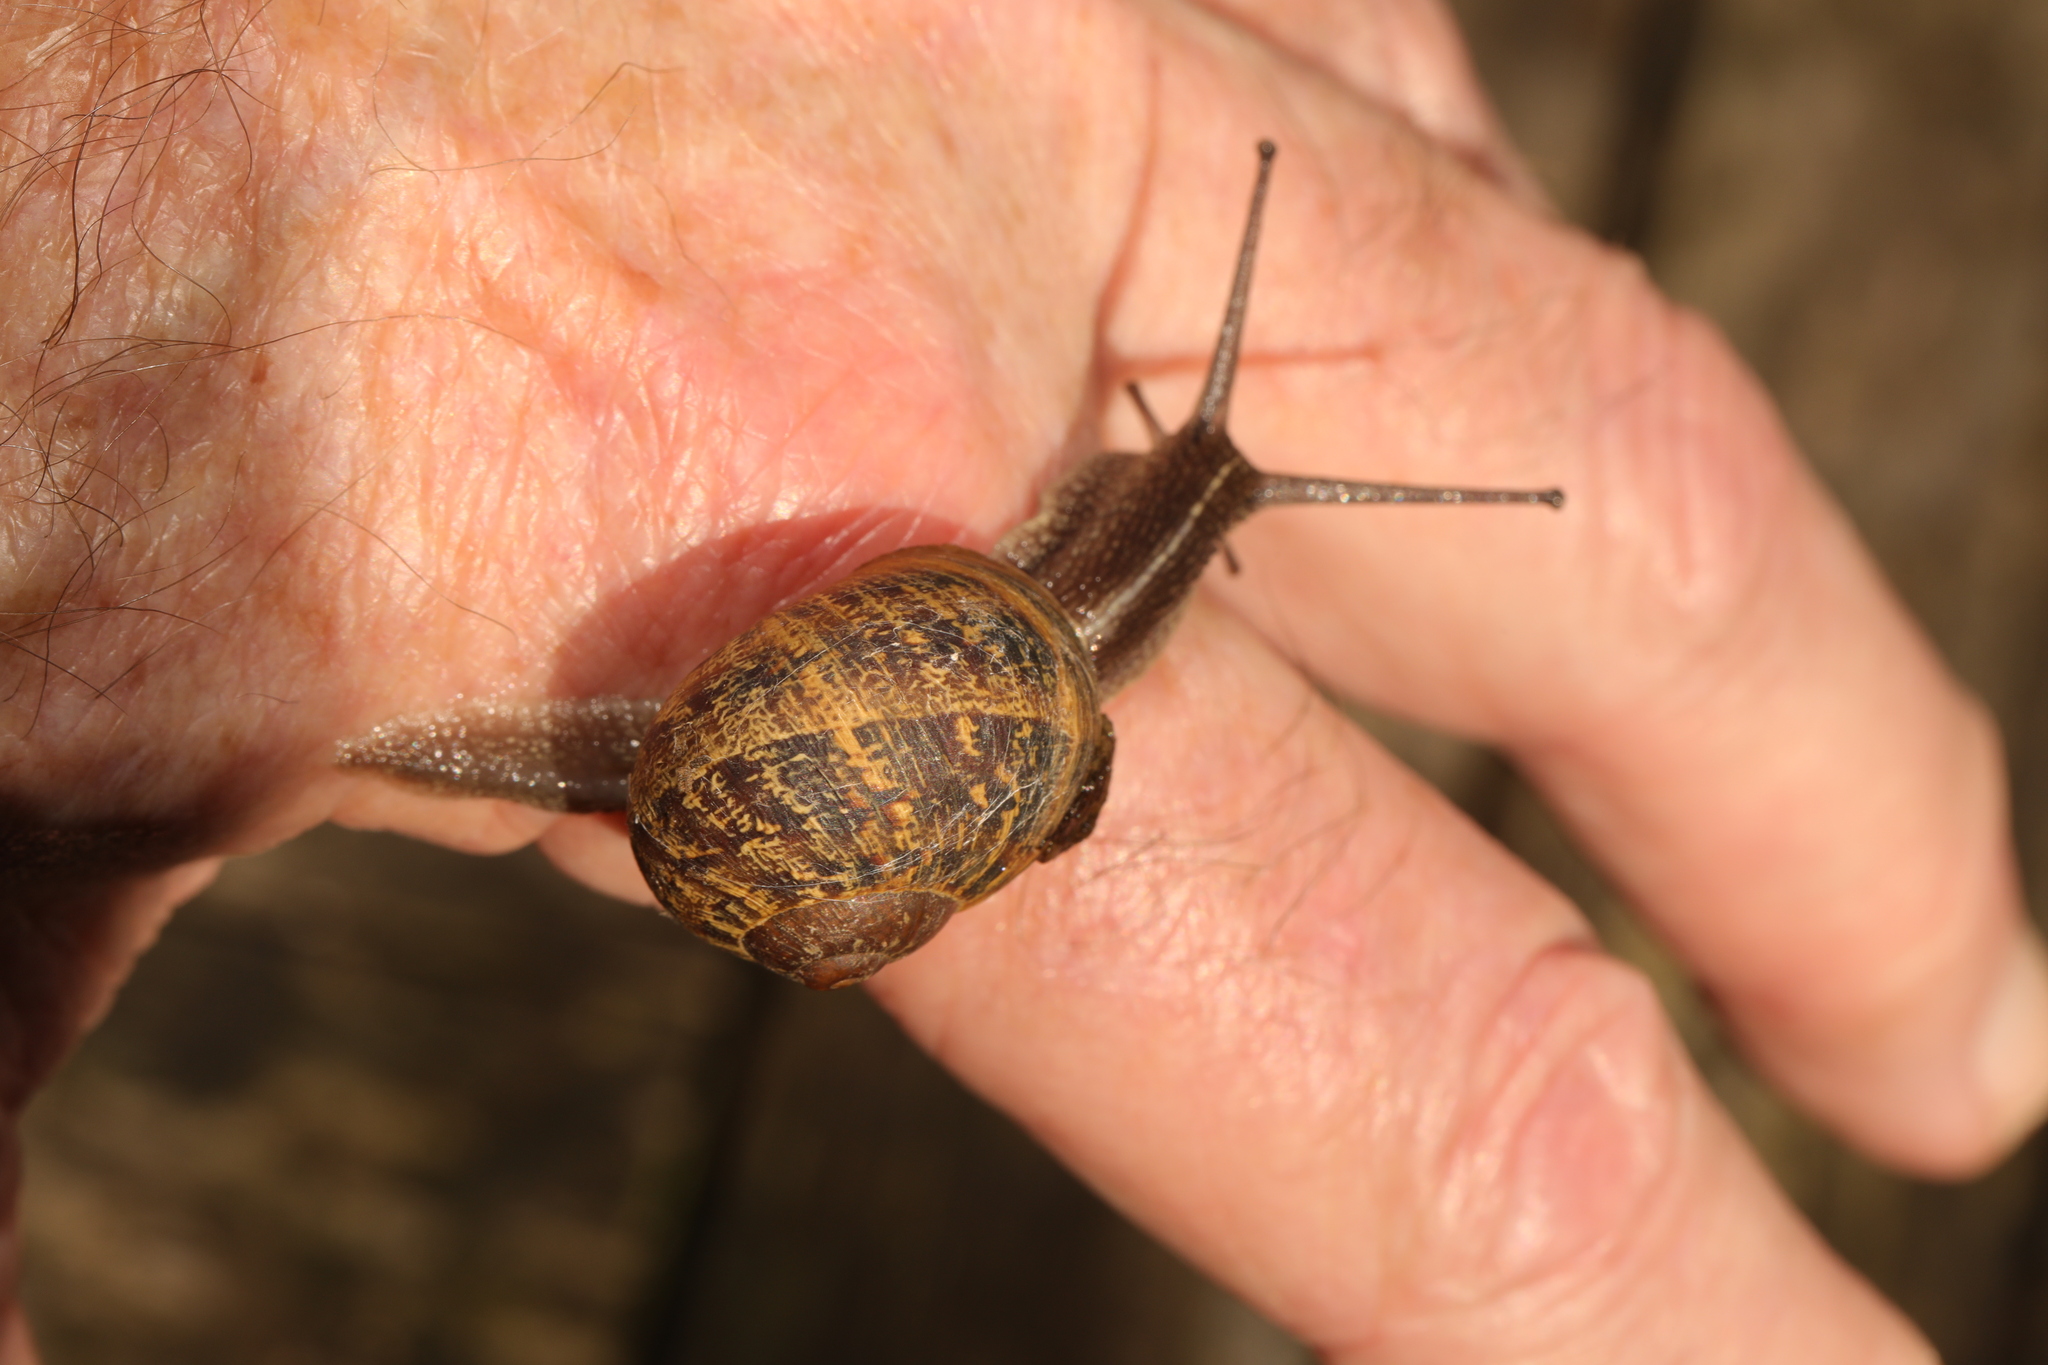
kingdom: Animalia
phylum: Mollusca
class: Gastropoda
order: Stylommatophora
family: Helicidae
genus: Cornu
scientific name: Cornu aspersum
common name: Brown garden snail
